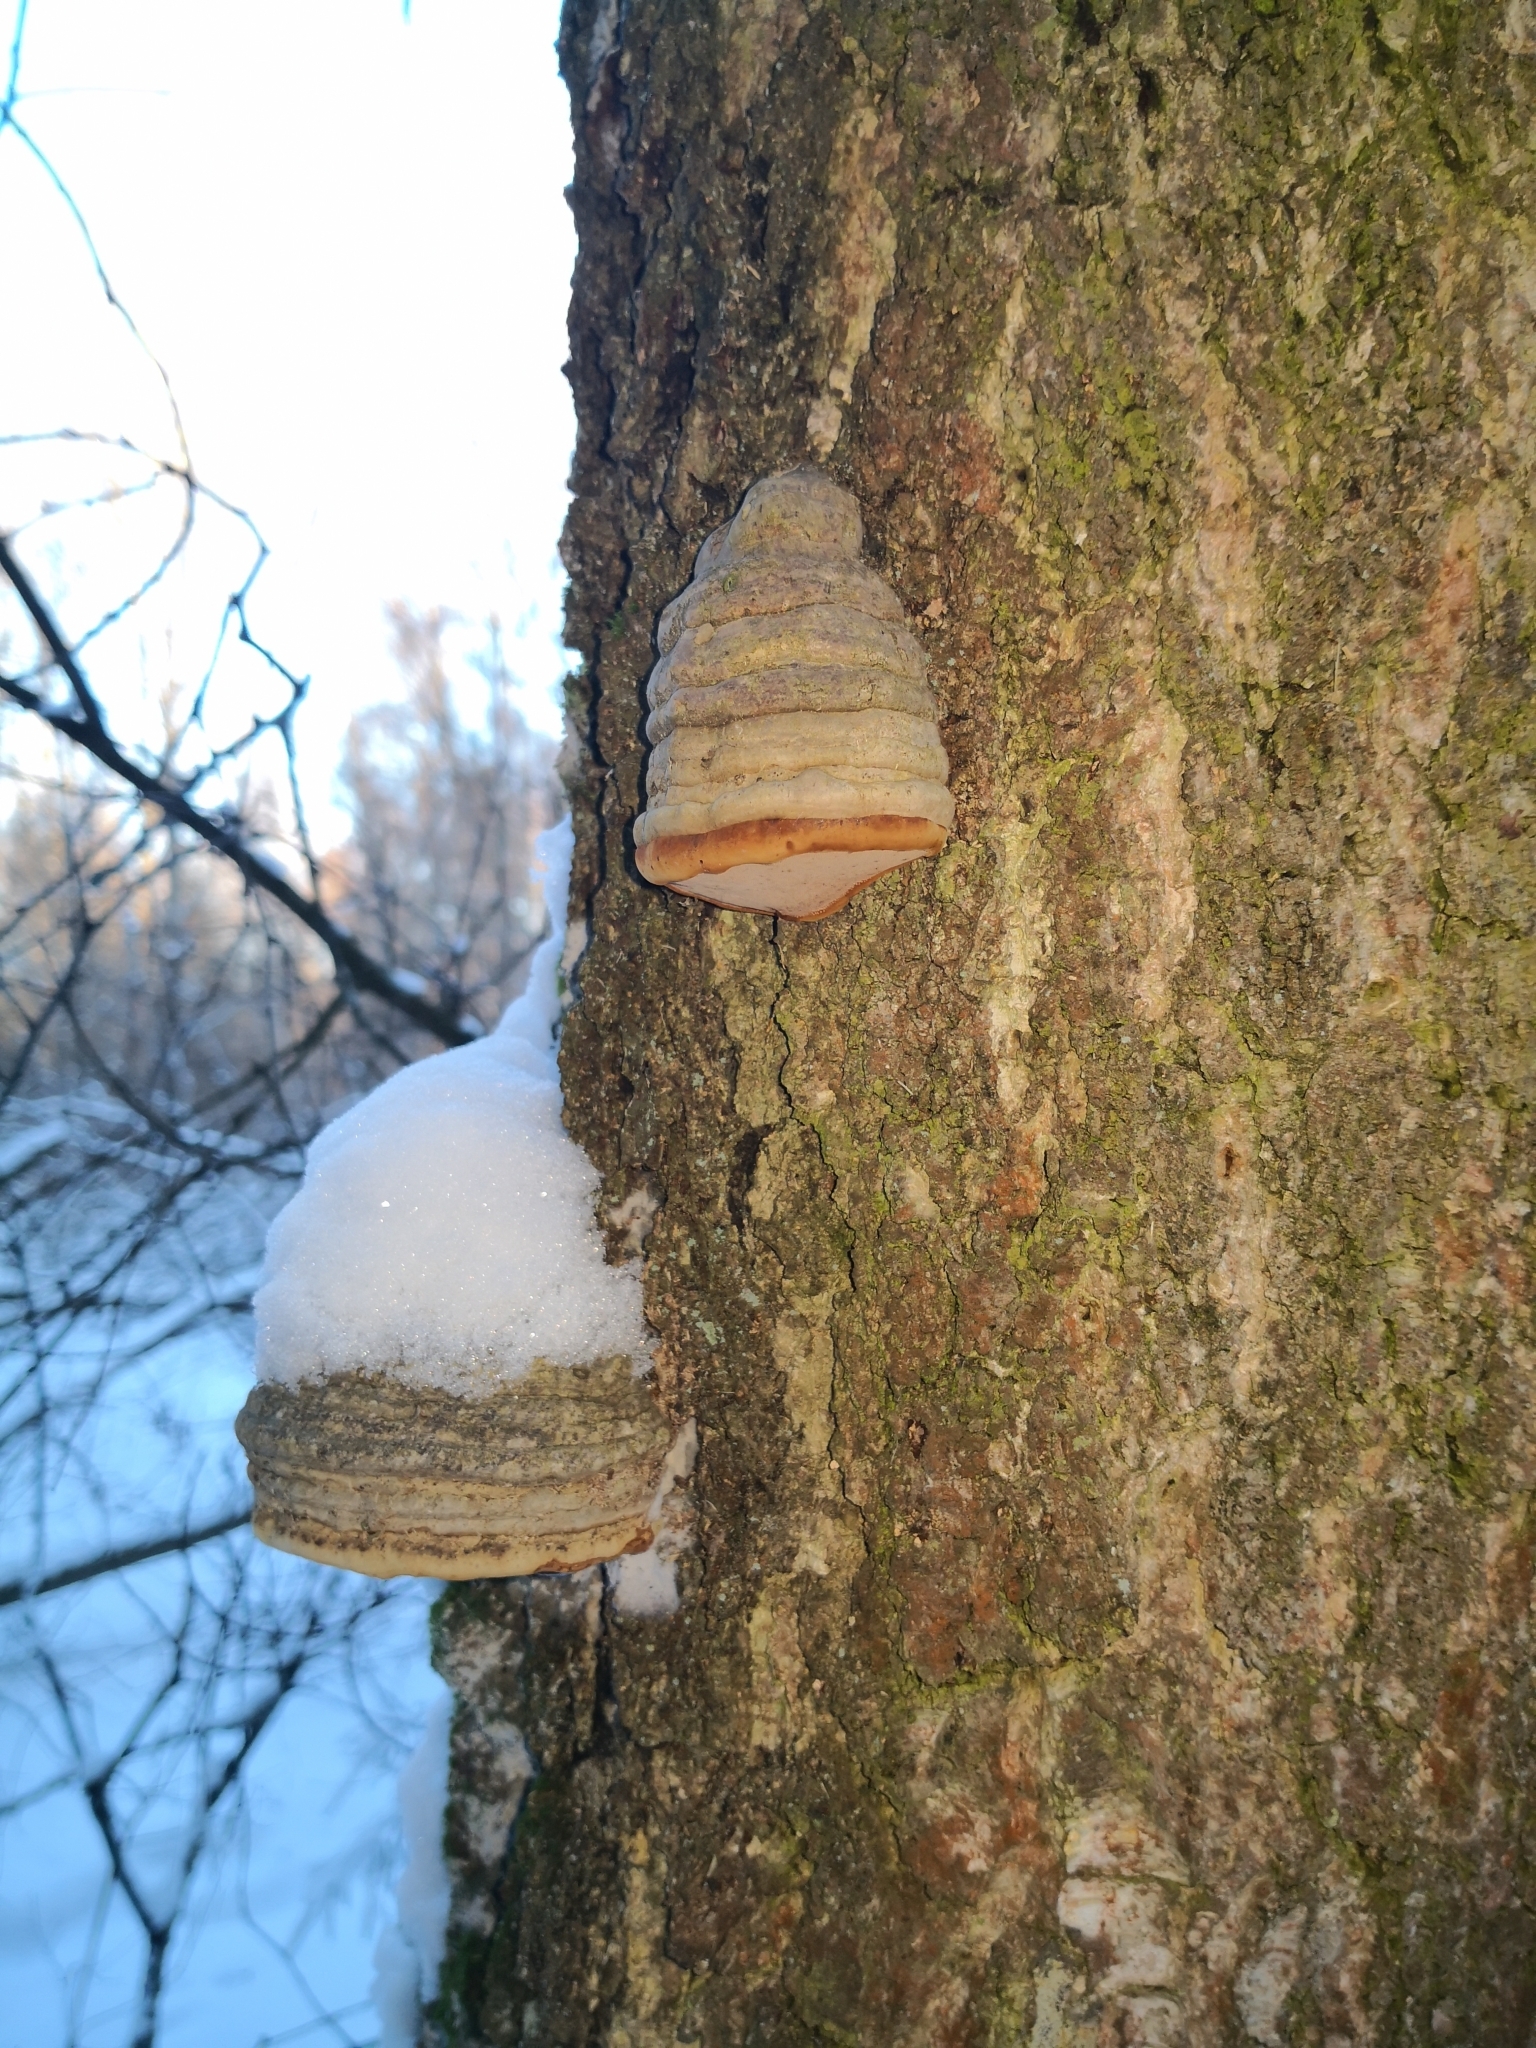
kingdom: Fungi
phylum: Basidiomycota
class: Agaricomycetes
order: Polyporales
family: Polyporaceae
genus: Fomes
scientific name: Fomes fomentarius
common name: Hoof fungus
